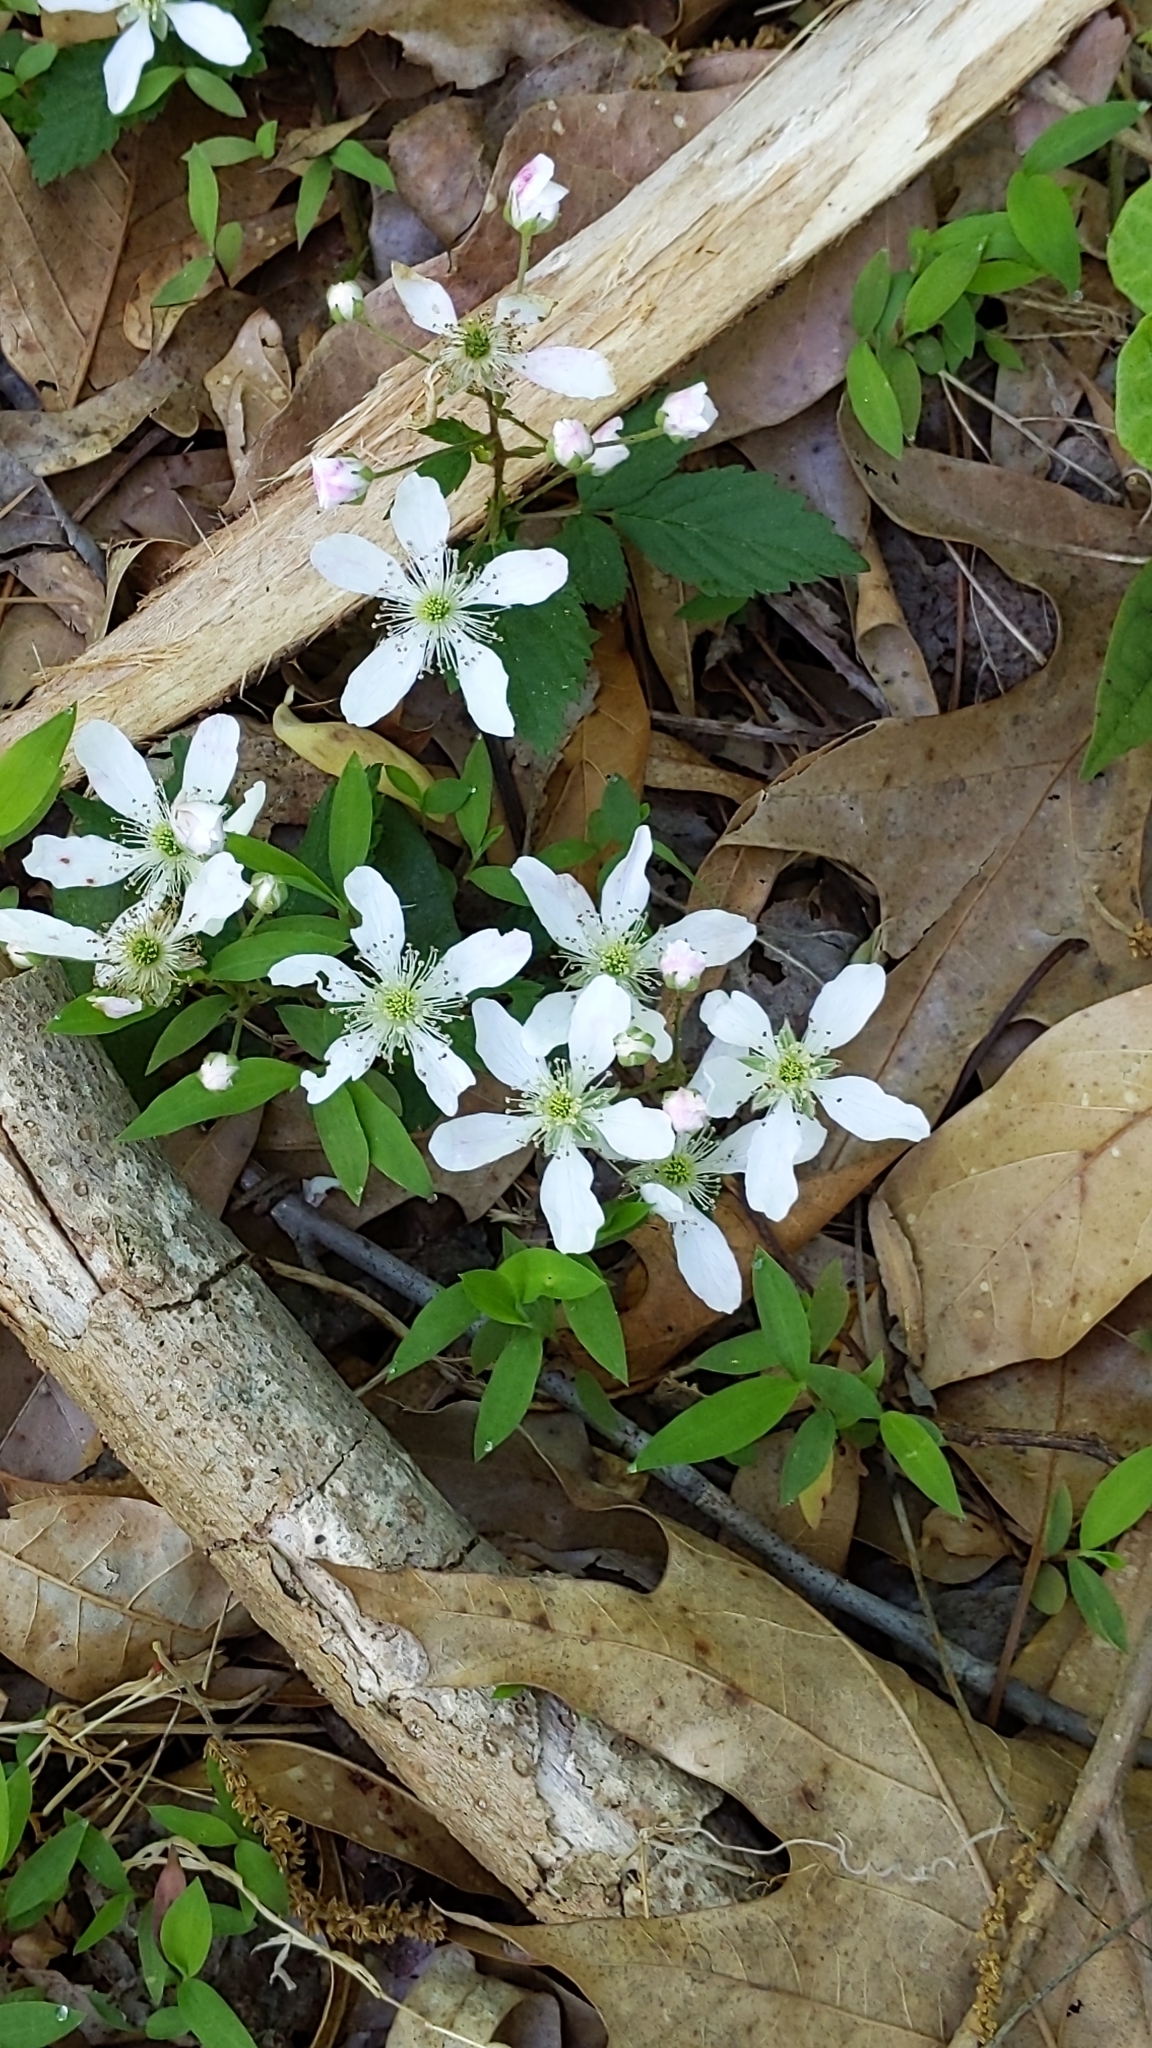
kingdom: Plantae
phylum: Tracheophyta
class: Magnoliopsida
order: Rosales
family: Rosaceae
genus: Rubus
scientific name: Rubus flagellaris
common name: American dewberry
